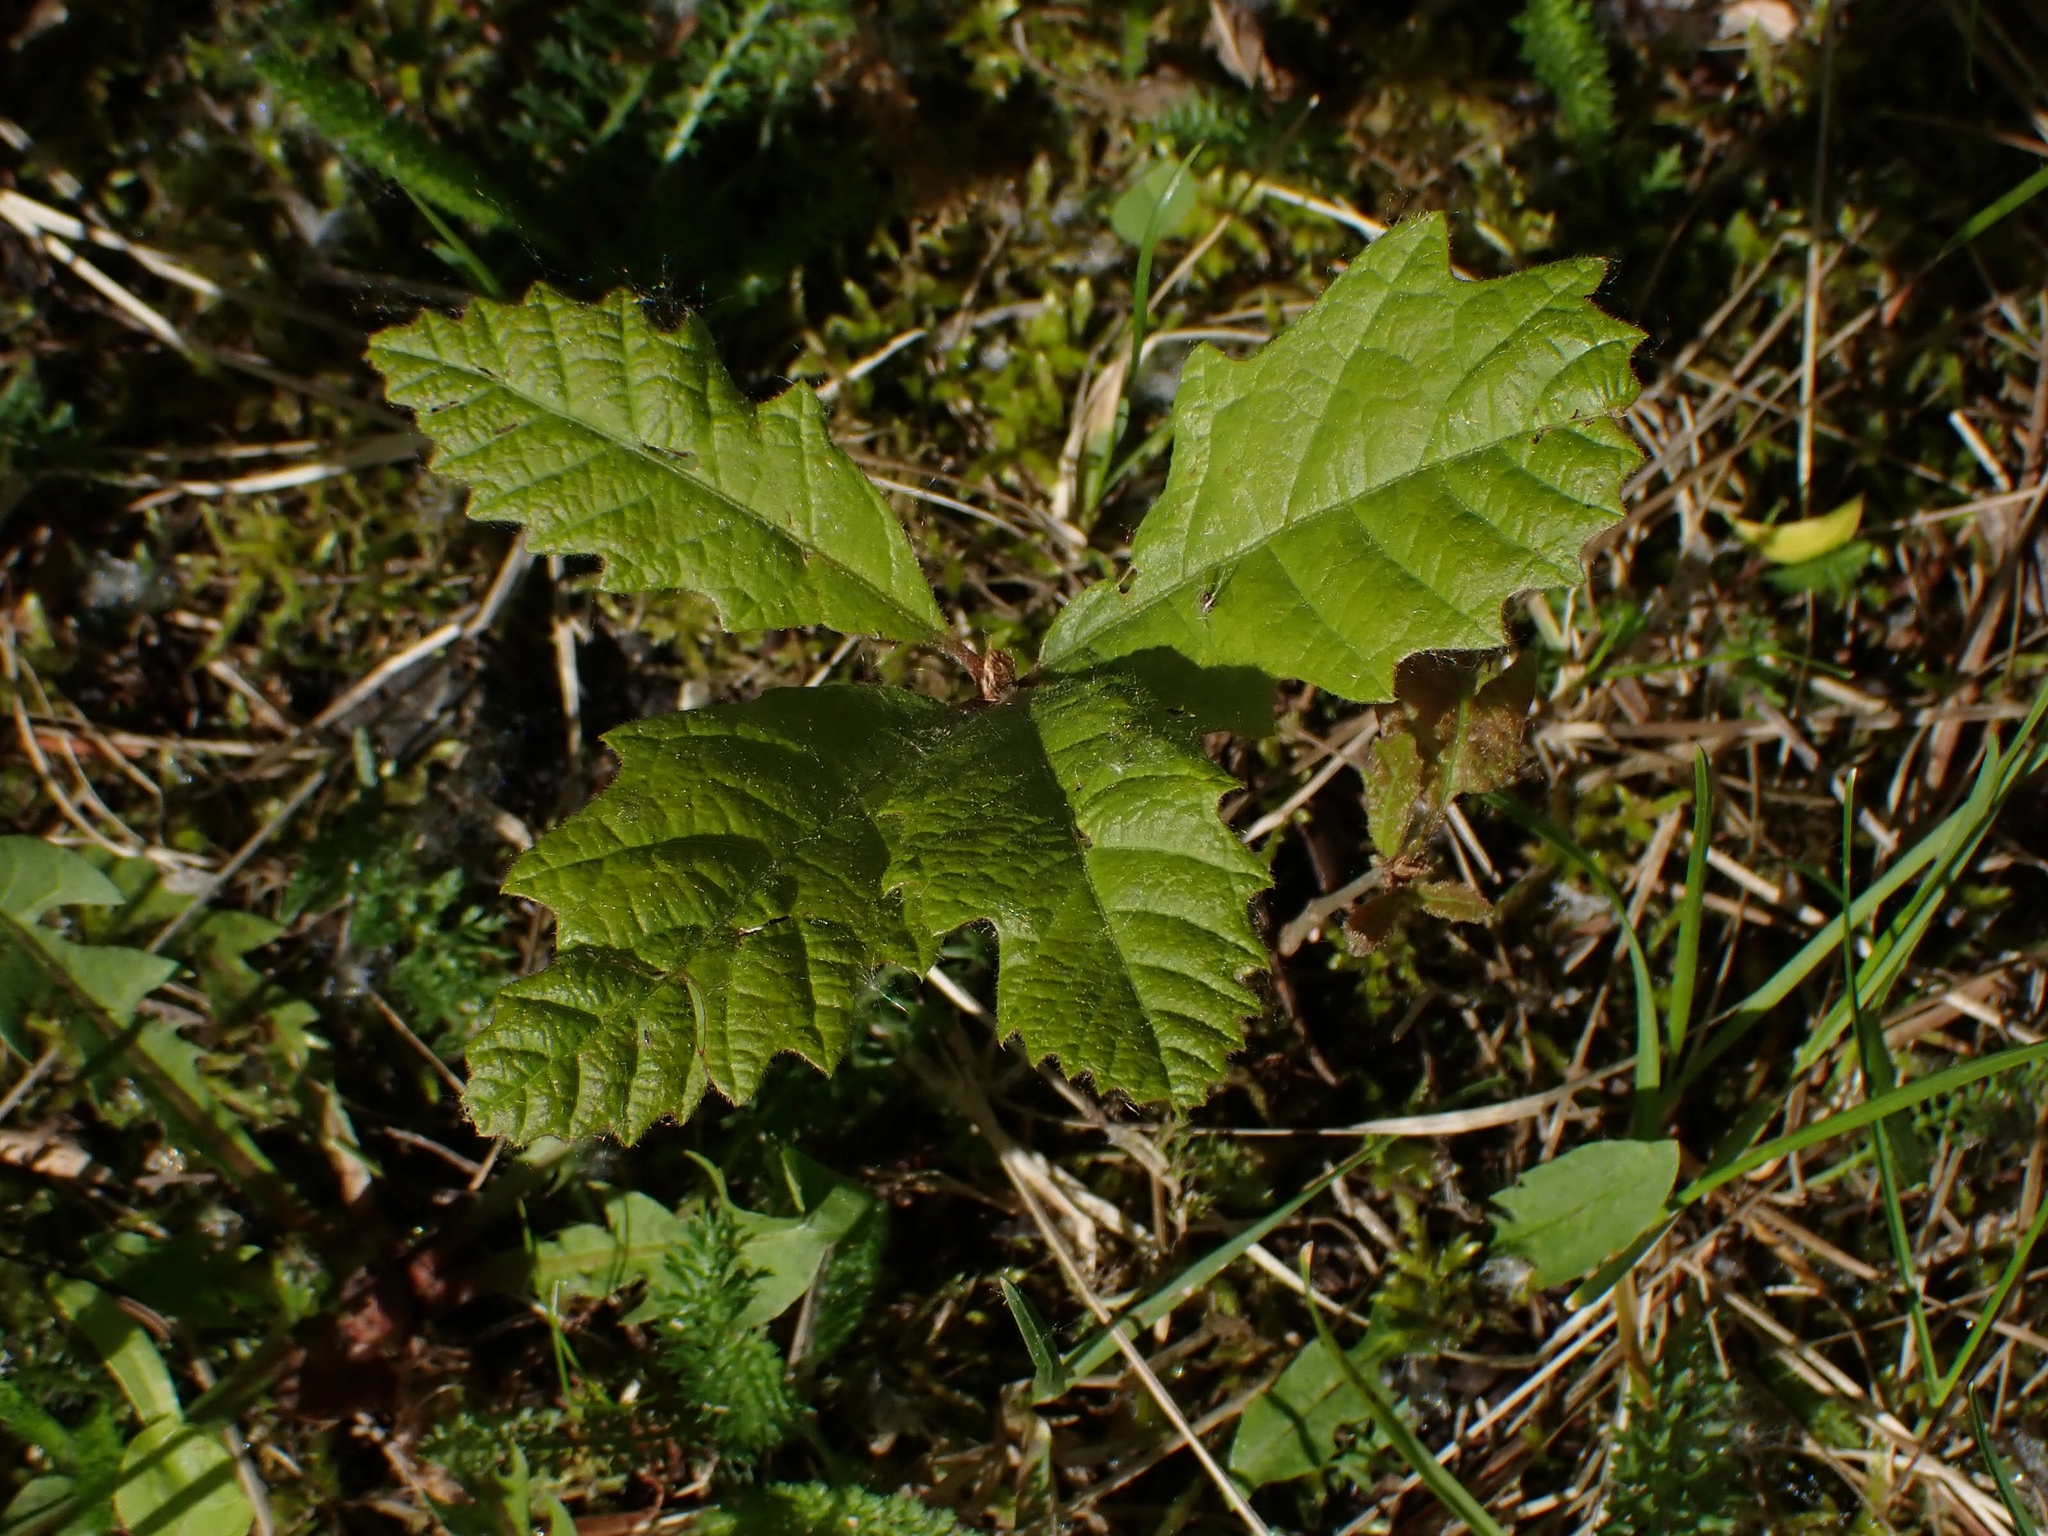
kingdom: Plantae
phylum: Tracheophyta
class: Magnoliopsida
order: Fagales
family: Fagaceae
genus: Quercus
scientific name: Quercus macrocarpa
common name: Bur oak
